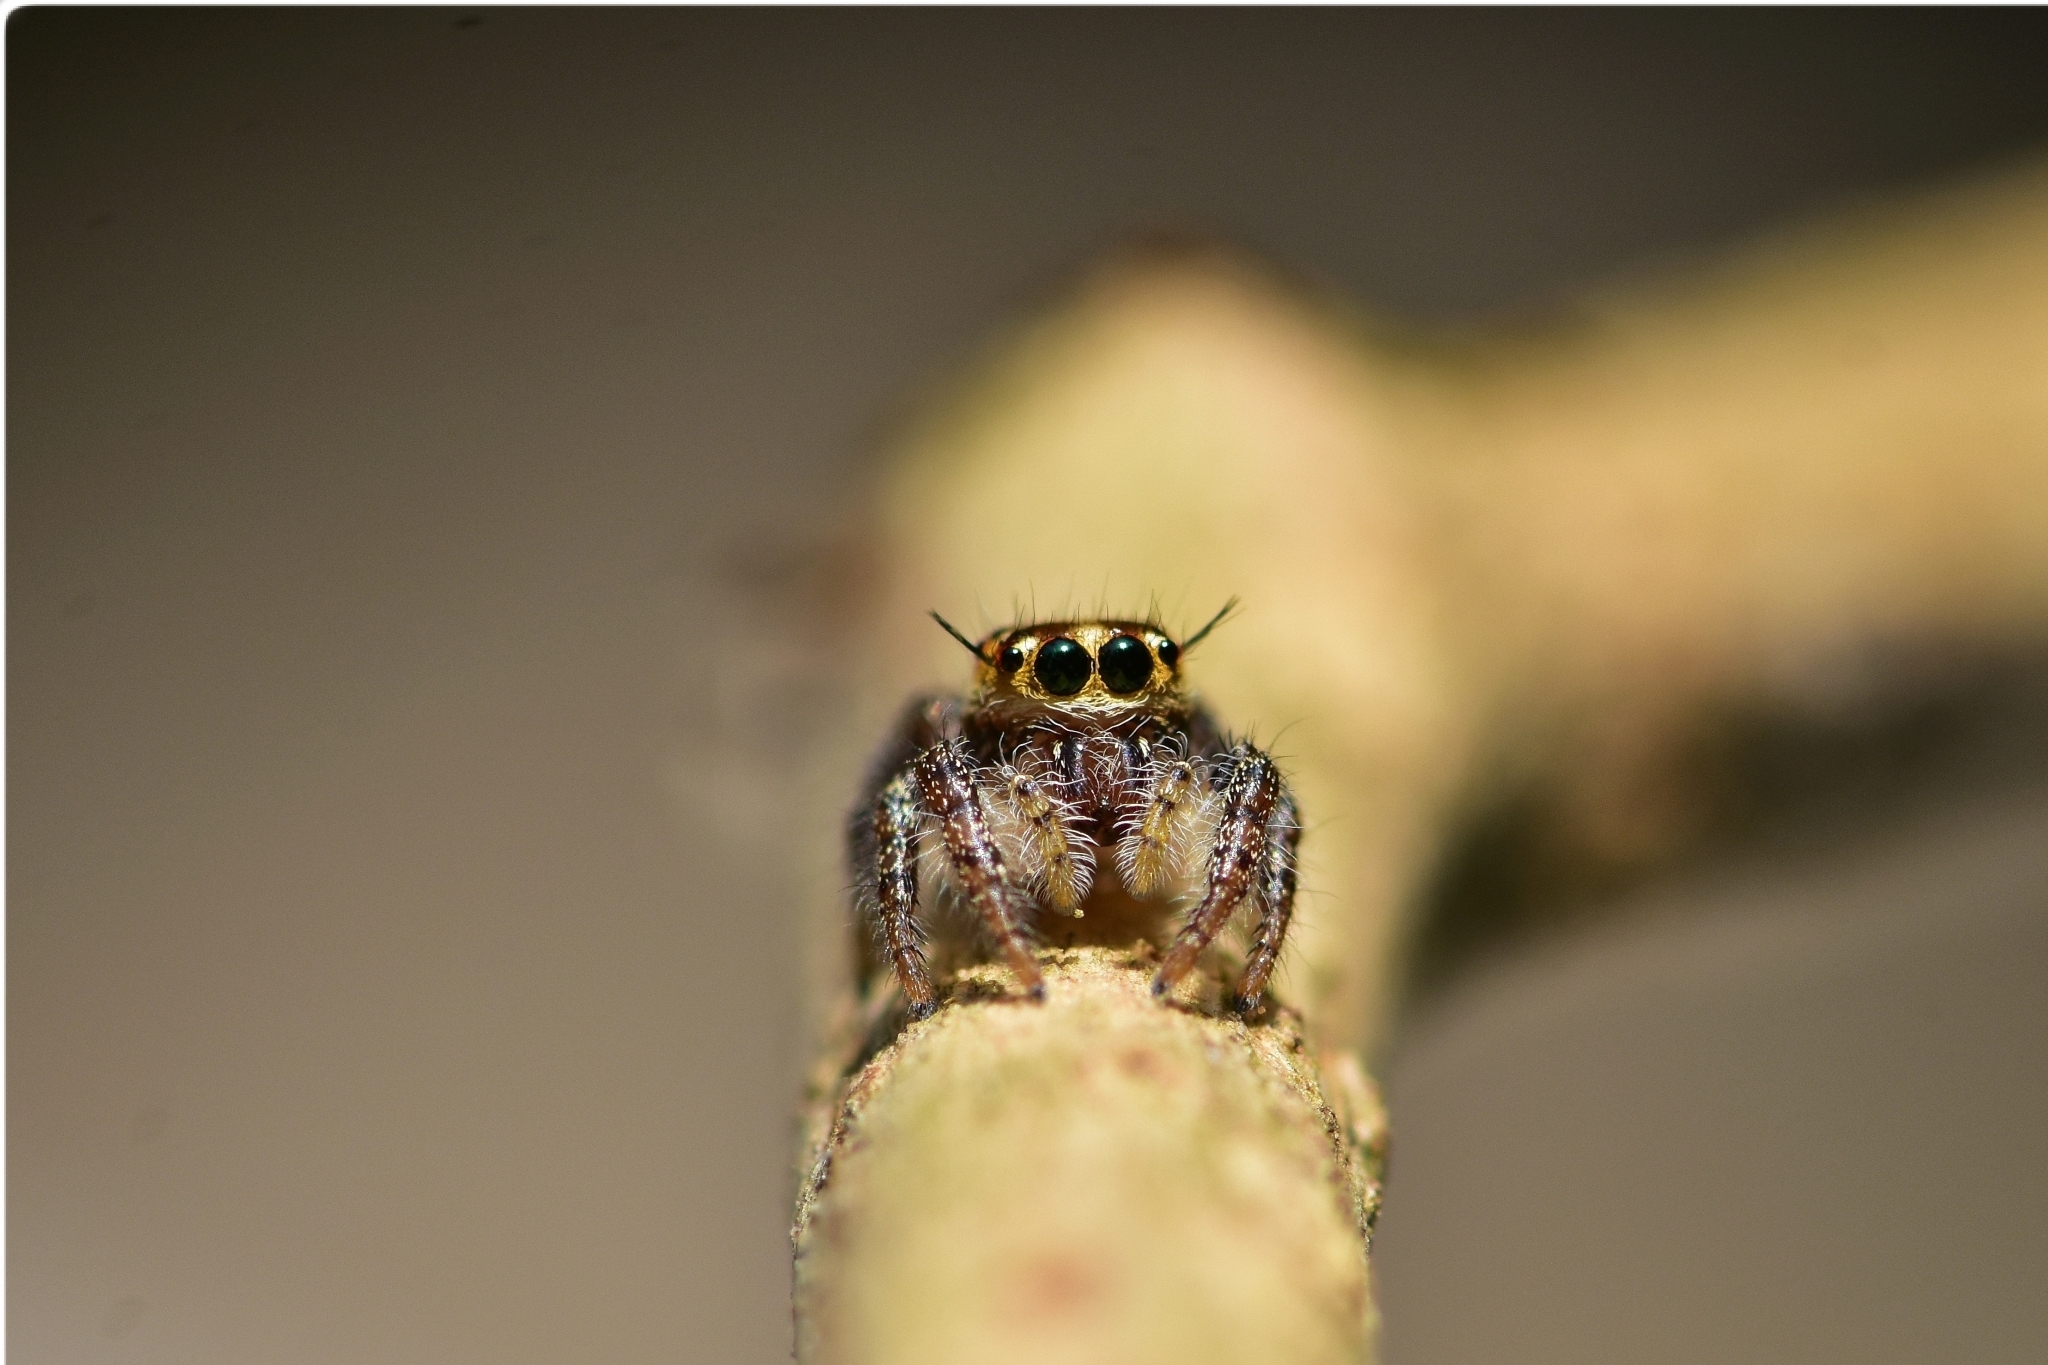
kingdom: Animalia
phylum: Arthropoda
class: Arachnida
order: Araneae
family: Salticidae
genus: Hyllus
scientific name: Hyllus semicupreus
